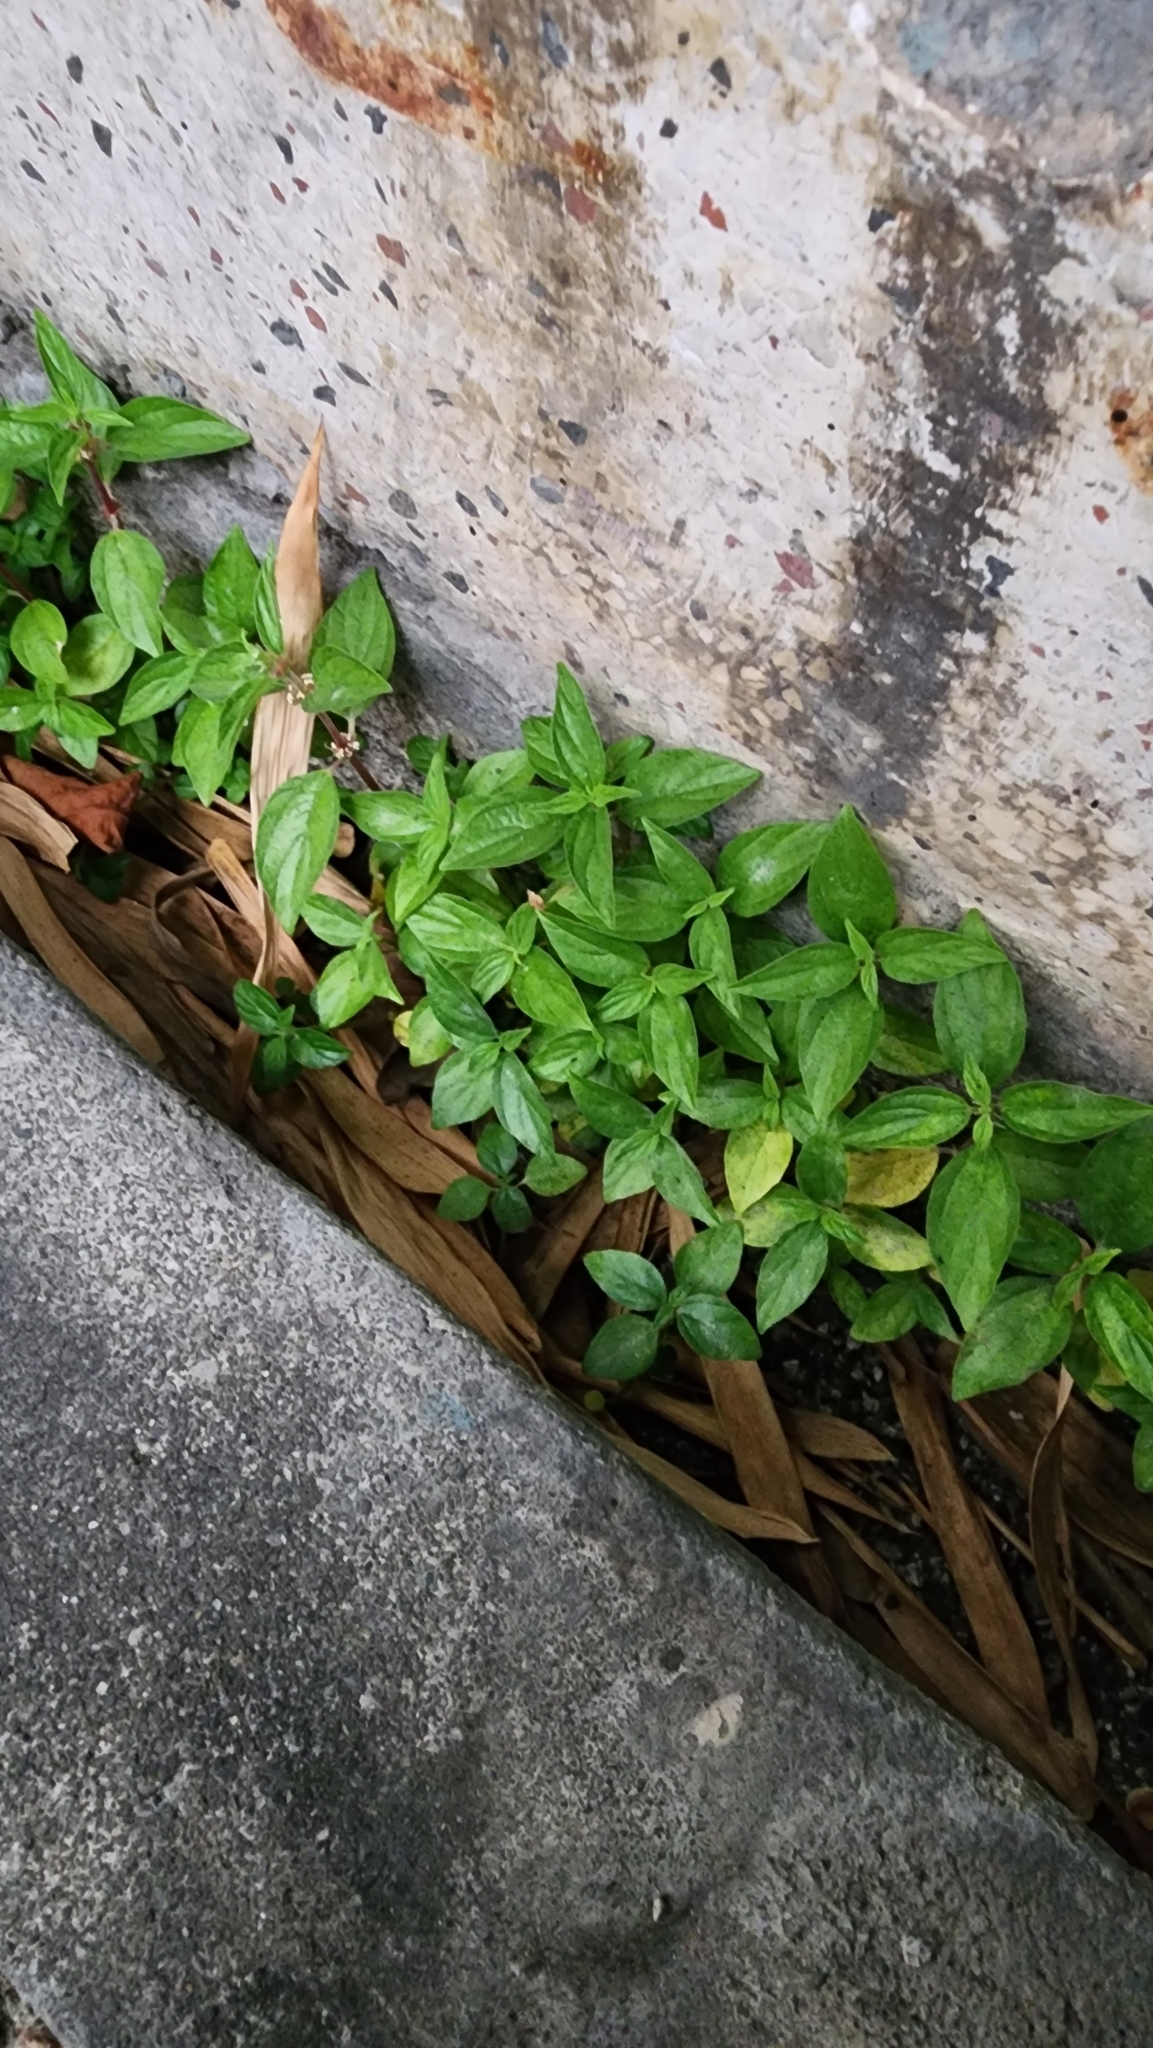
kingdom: Plantae
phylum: Tracheophyta
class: Magnoliopsida
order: Rosales
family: Urticaceae
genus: Pouzolzia
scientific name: Pouzolzia zeylanica
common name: Graceful pouzolzsbush
